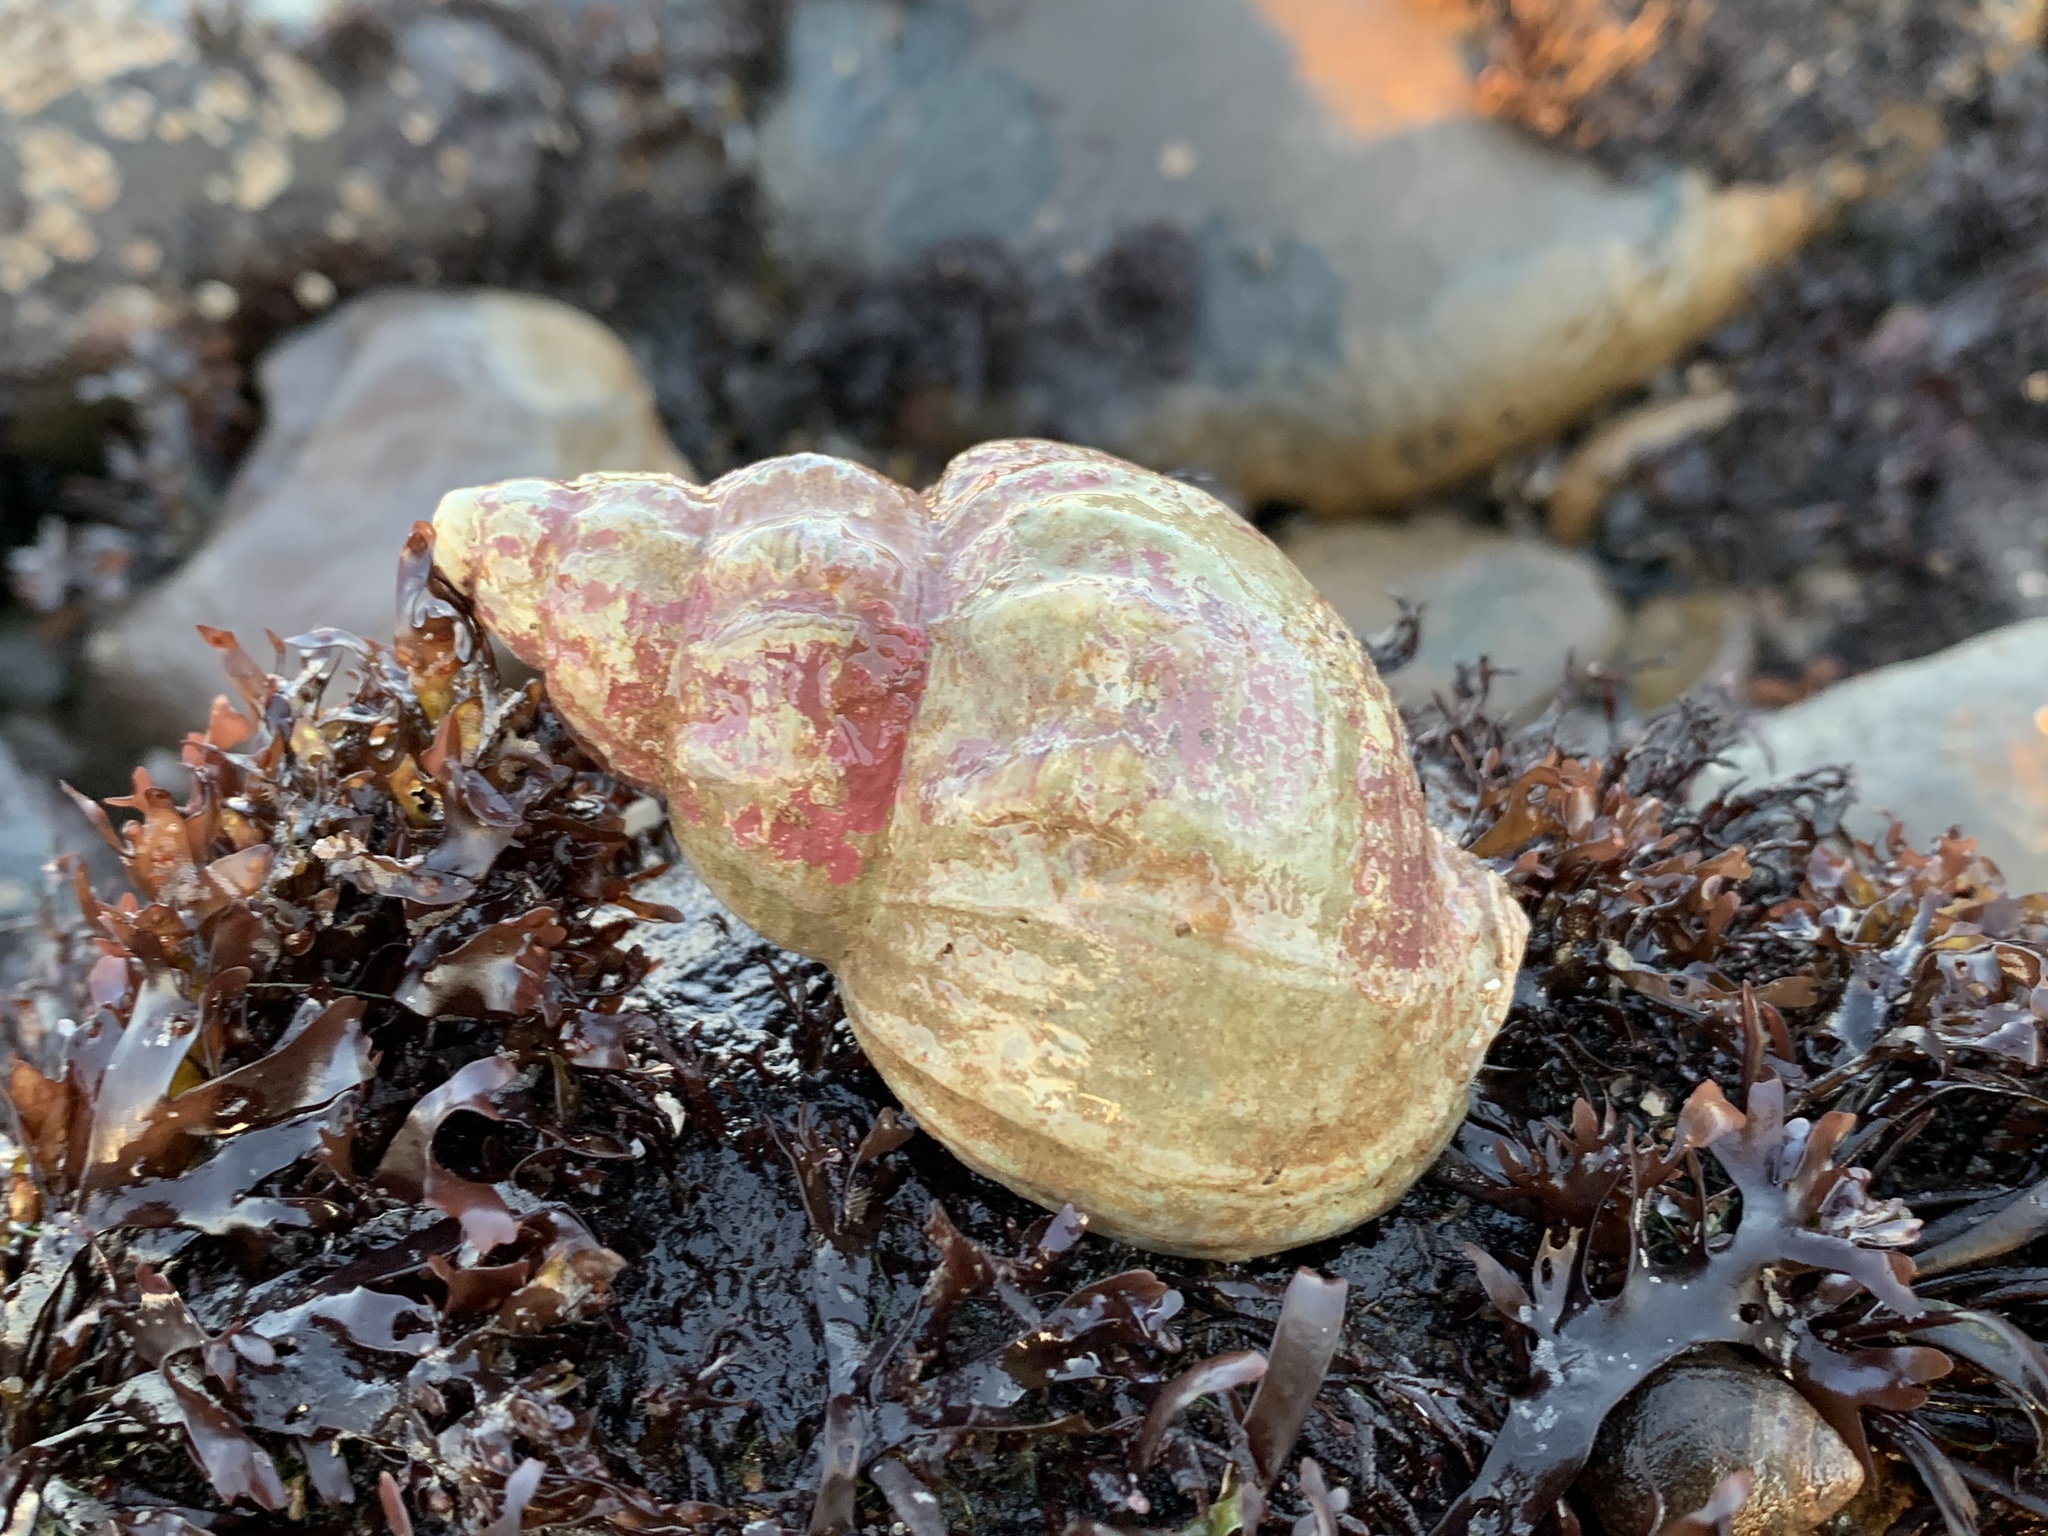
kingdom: Animalia
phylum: Mollusca
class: Gastropoda
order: Neogastropoda
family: Buccinidae
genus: Buccinum
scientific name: Buccinum undatum
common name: Common whelk
